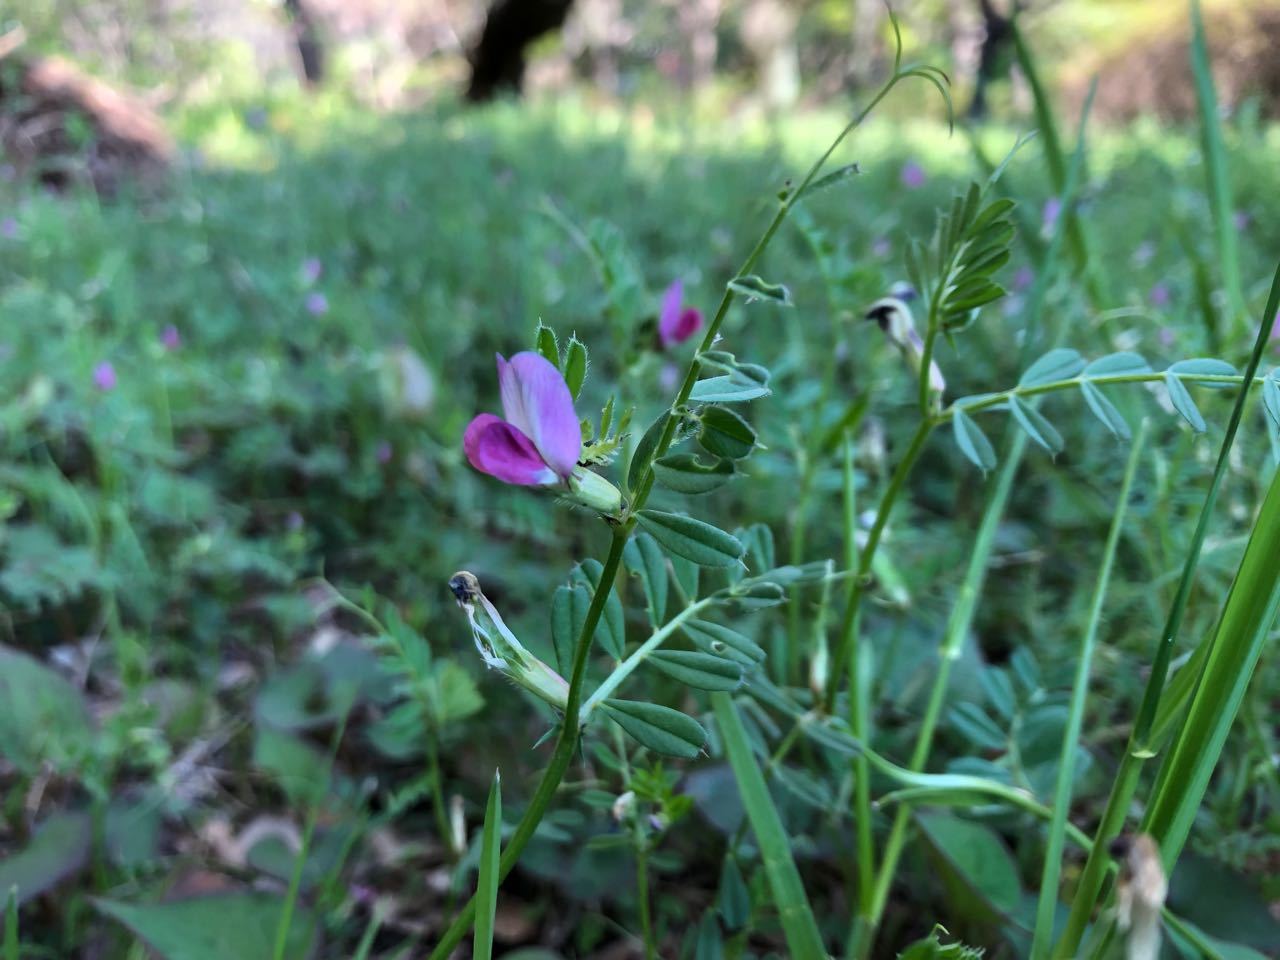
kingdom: Plantae
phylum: Tracheophyta
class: Magnoliopsida
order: Fabales
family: Fabaceae
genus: Vicia
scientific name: Vicia sativa
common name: Garden vetch
